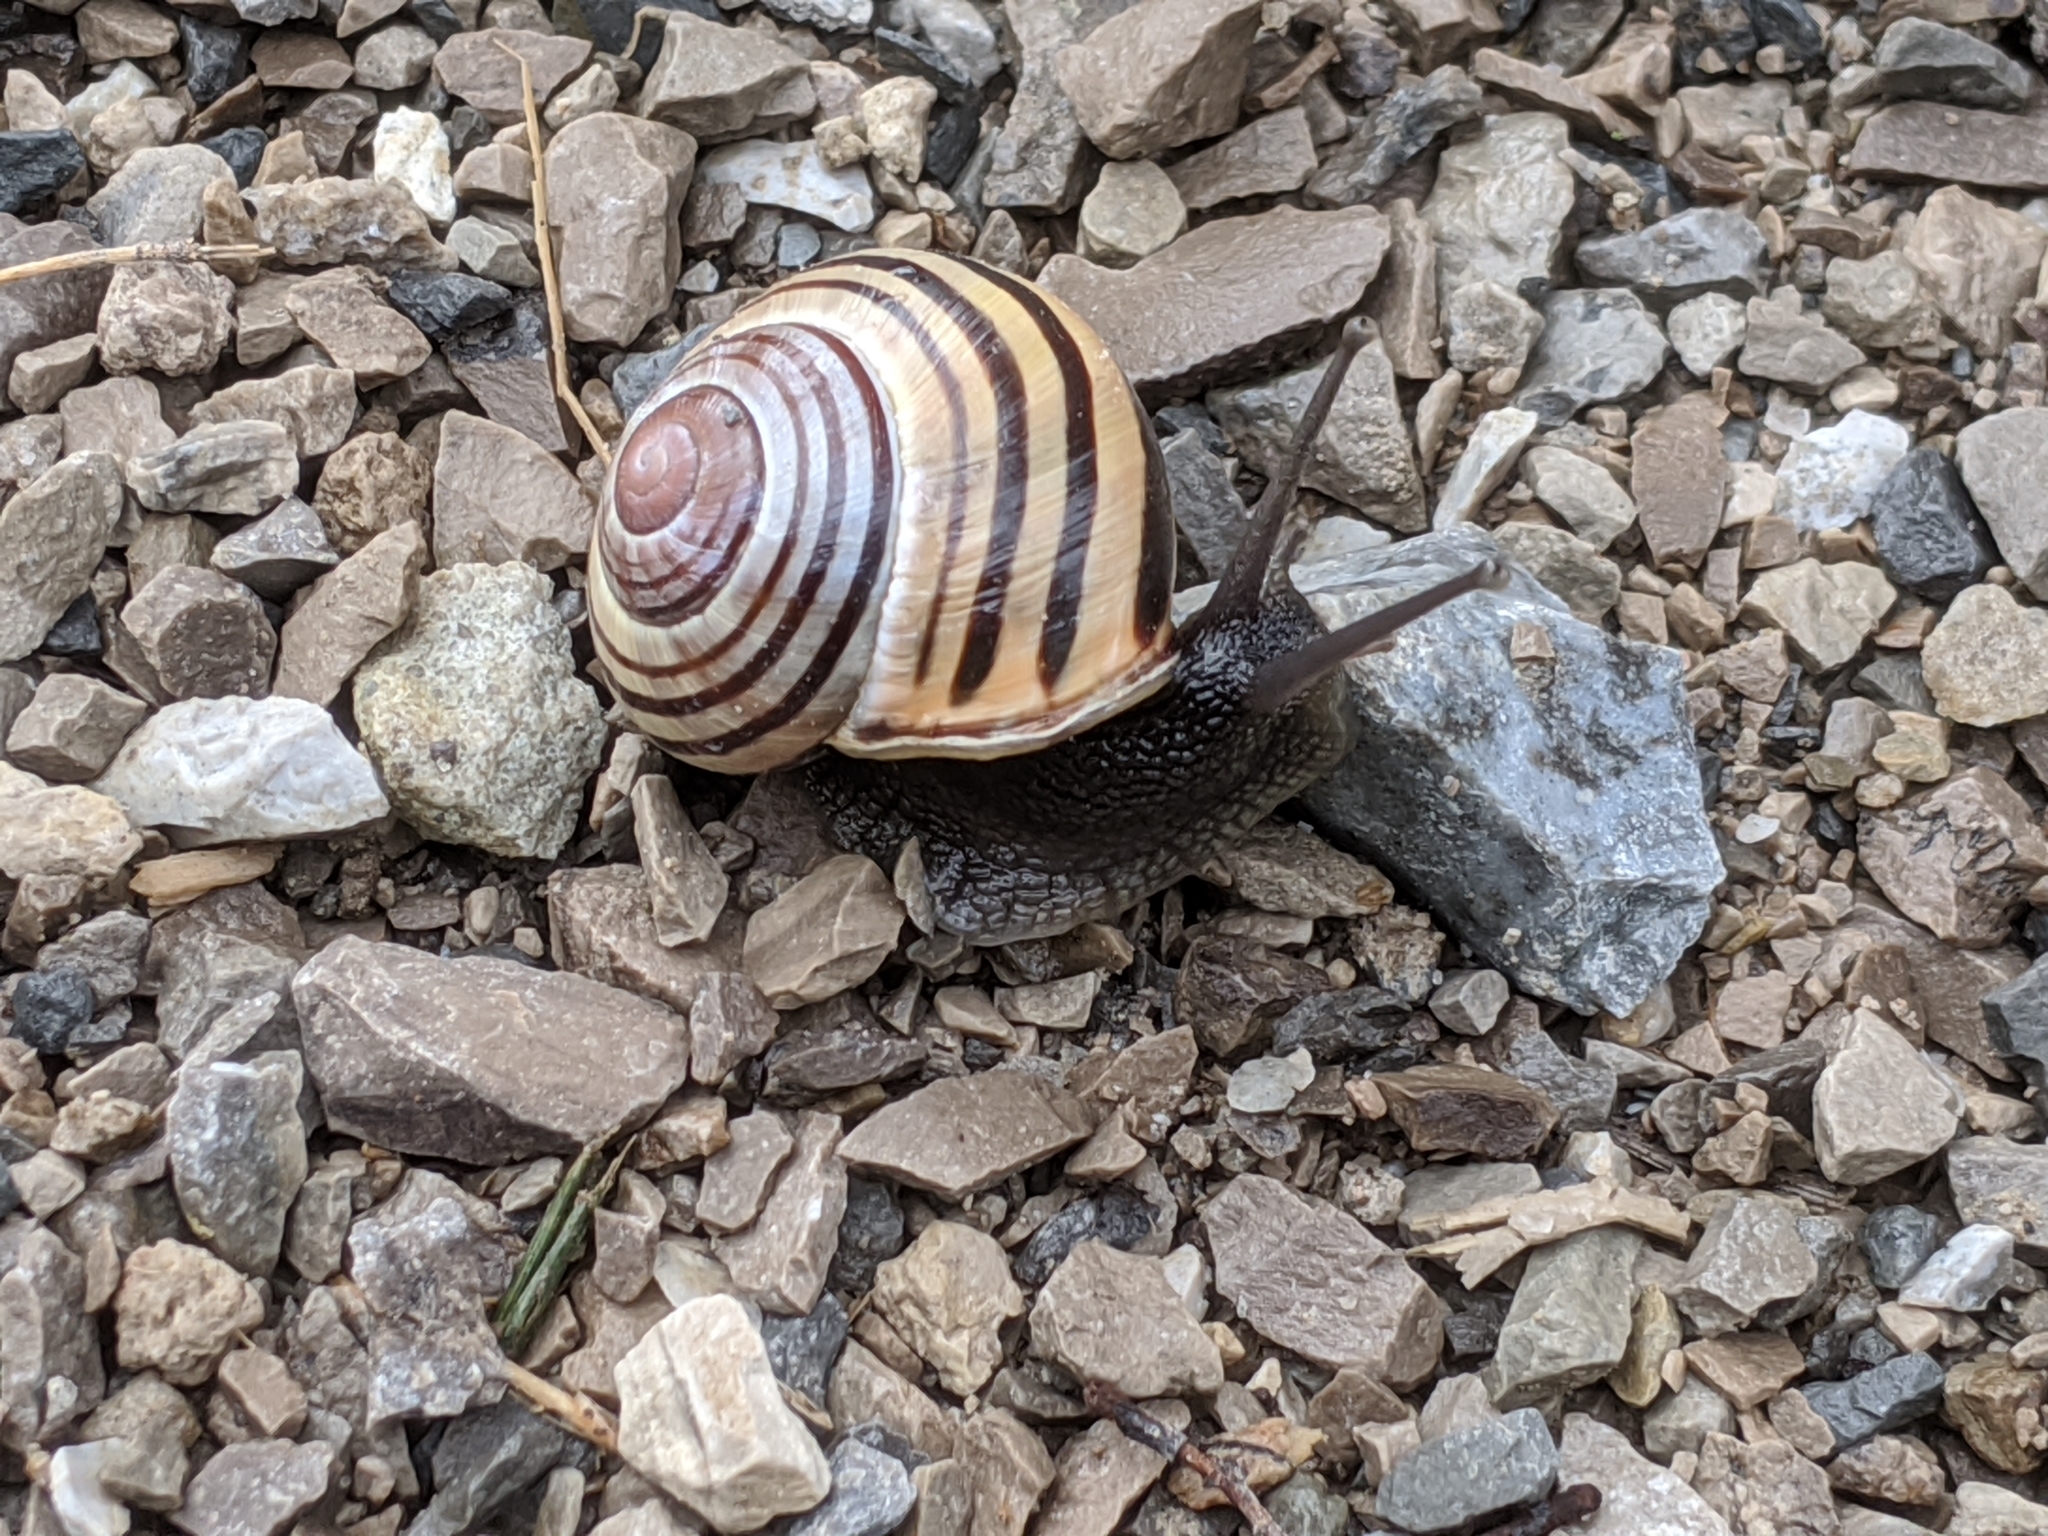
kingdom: Animalia
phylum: Mollusca
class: Gastropoda
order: Stylommatophora
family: Helicidae
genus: Cepaea
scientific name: Cepaea nemoralis
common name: Grovesnail
